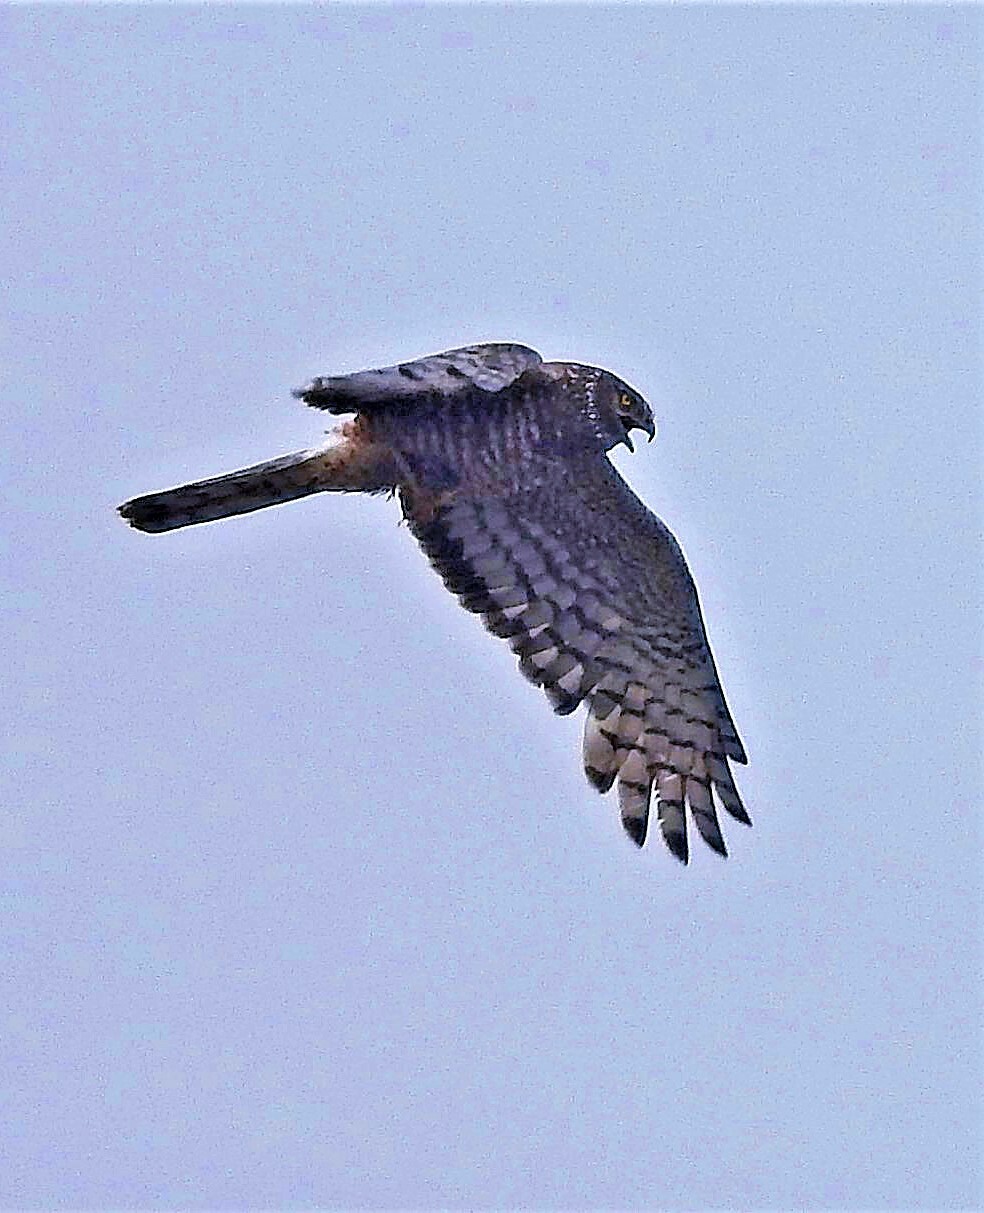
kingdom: Animalia
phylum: Chordata
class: Aves
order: Accipitriformes
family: Accipitridae
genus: Circus
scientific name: Circus cinereus
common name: Cinereous harrier
